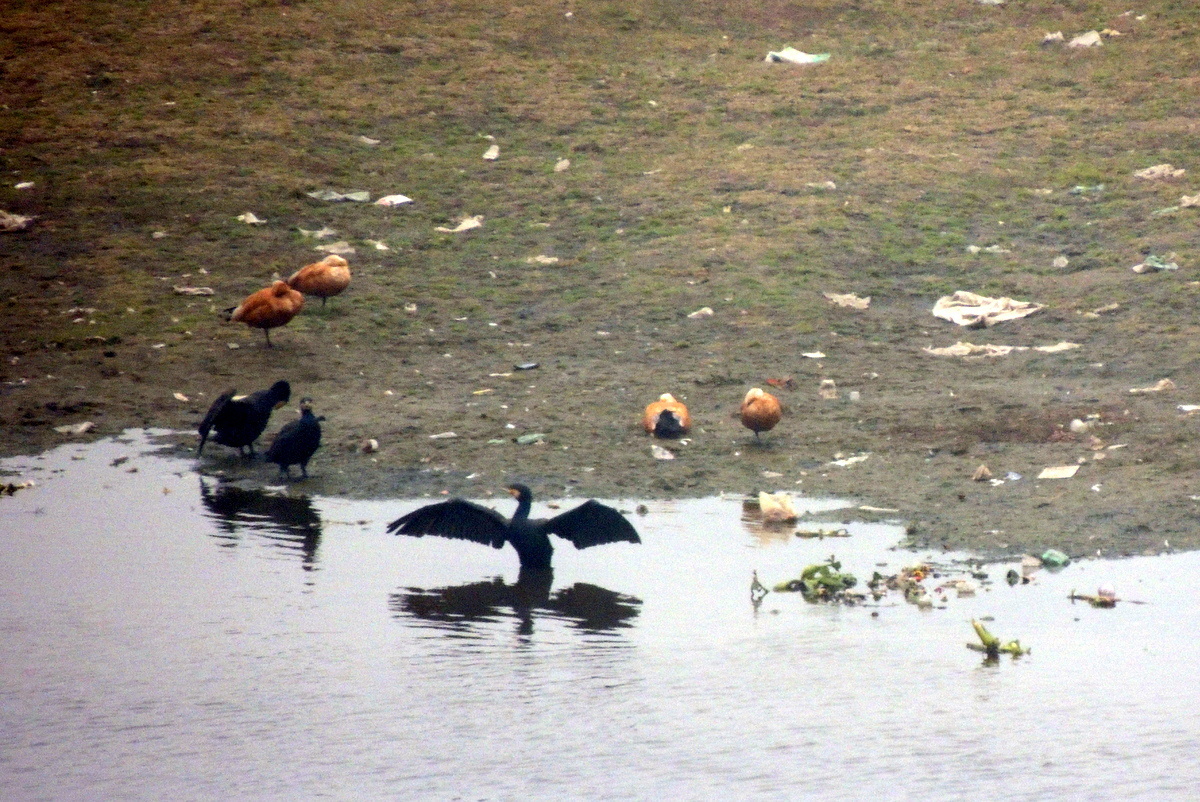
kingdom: Animalia
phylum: Chordata
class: Aves
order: Suliformes
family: Phalacrocoracidae
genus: Phalacrocorax
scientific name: Phalacrocorax carbo
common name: Great cormorant
